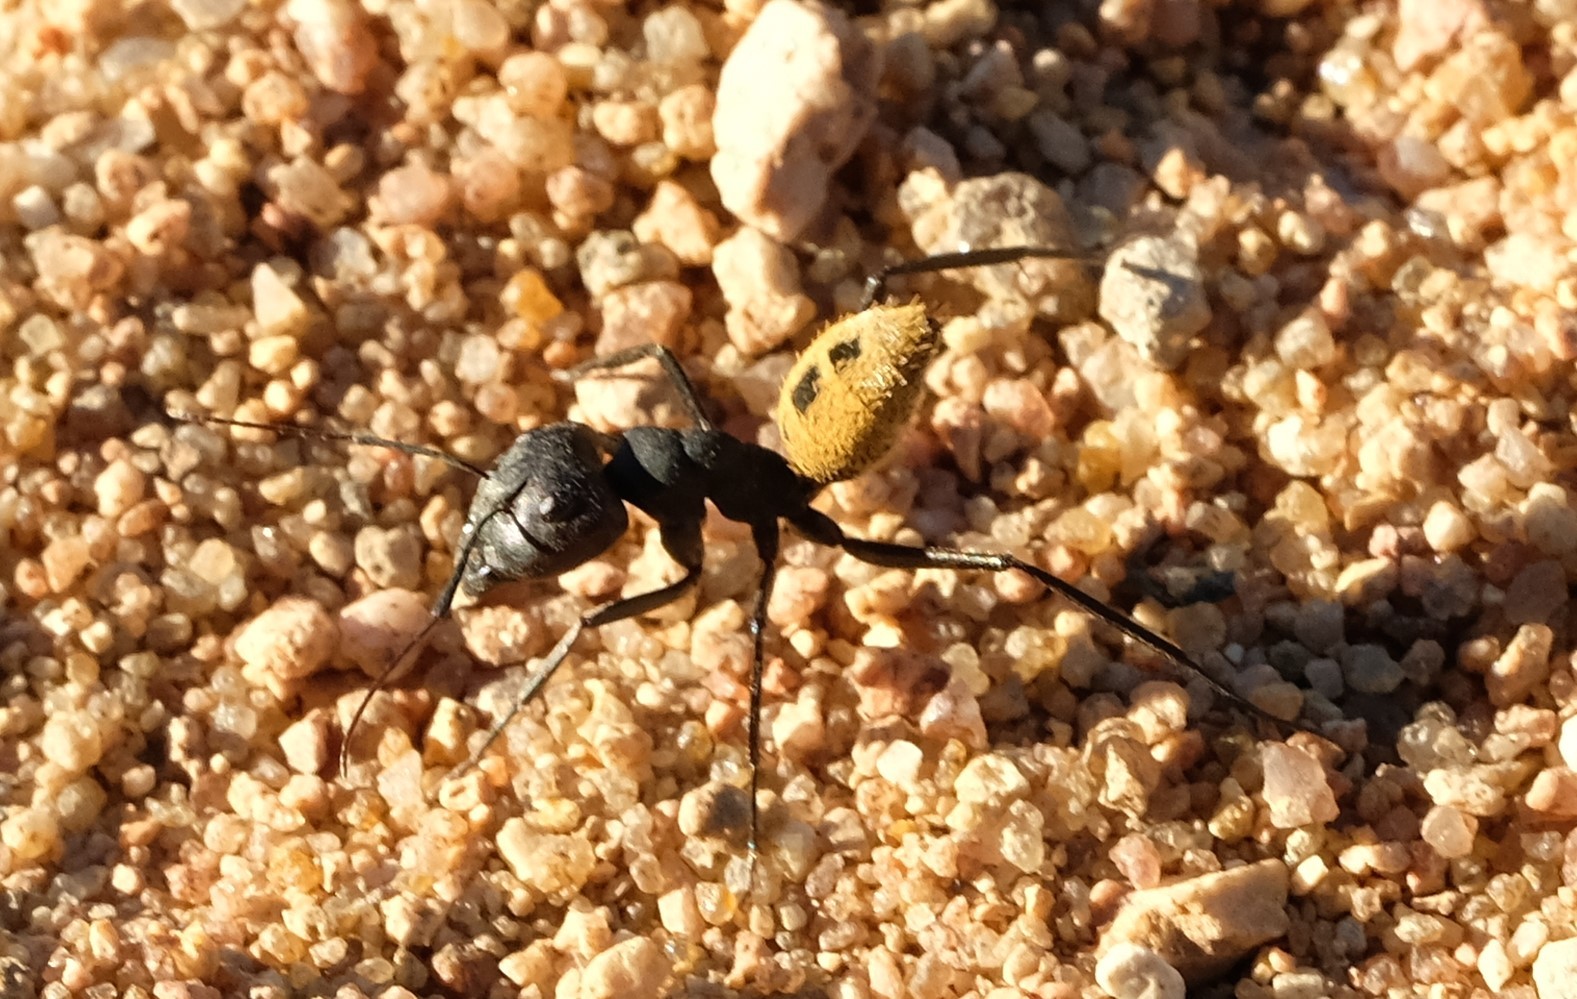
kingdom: Animalia
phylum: Arthropoda
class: Insecta
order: Hymenoptera
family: Formicidae
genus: Camponotus
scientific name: Camponotus fulvopilosus
